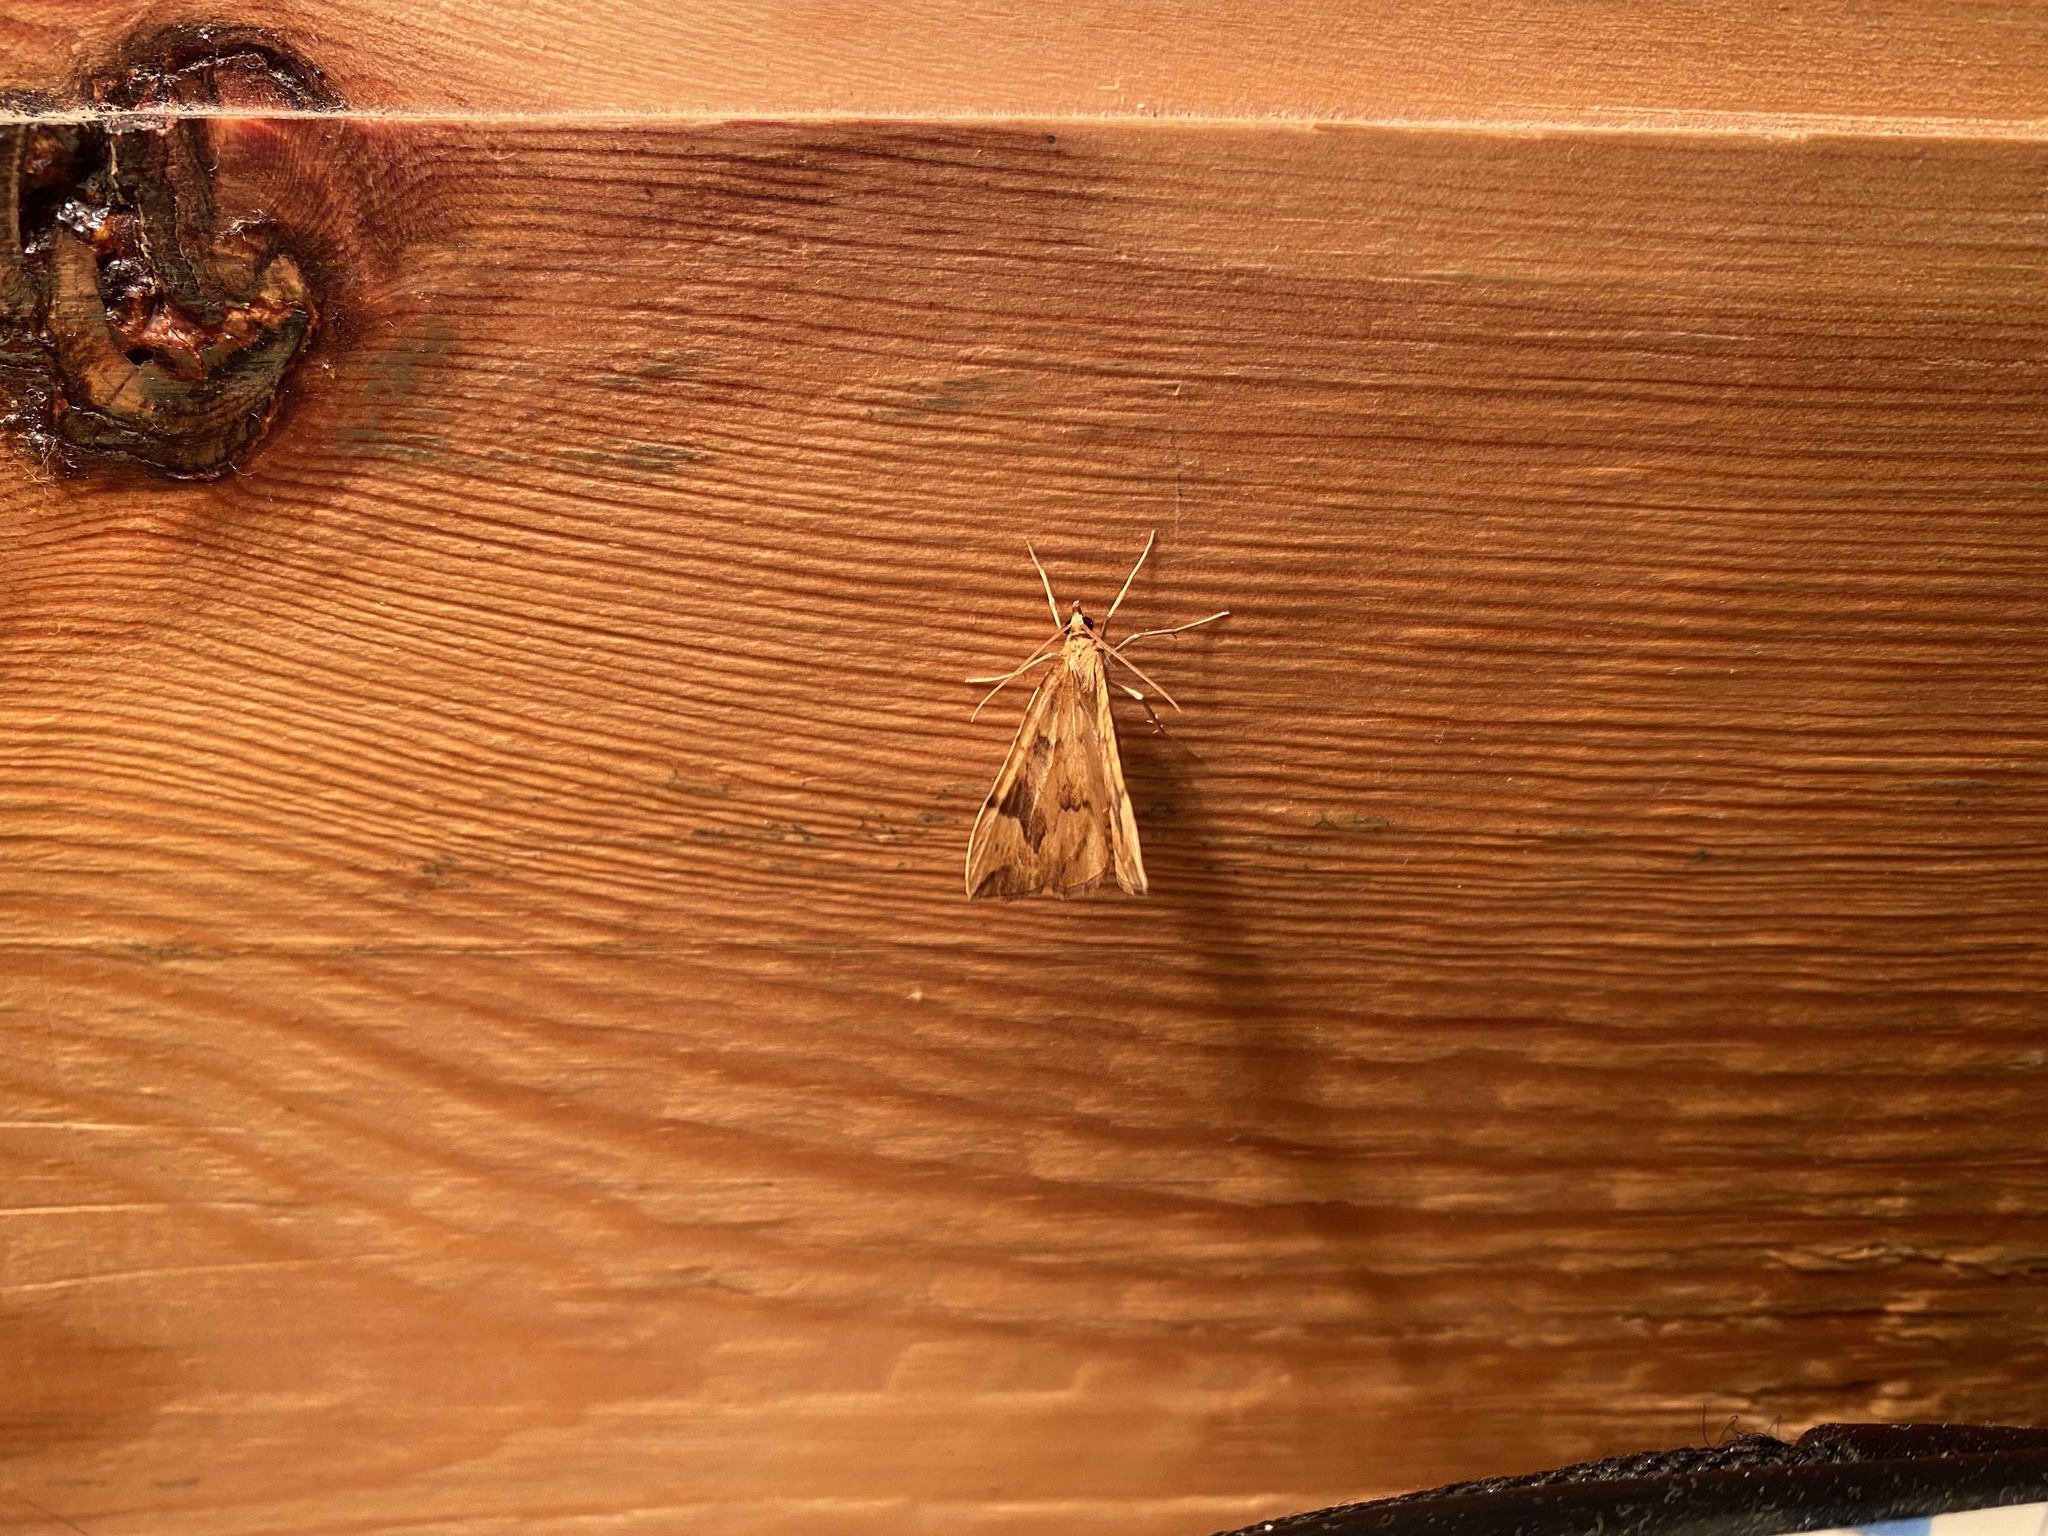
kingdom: Animalia
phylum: Arthropoda
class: Insecta
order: Lepidoptera
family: Geometridae
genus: Eulithis
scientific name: Eulithis populata
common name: Northern spinach
